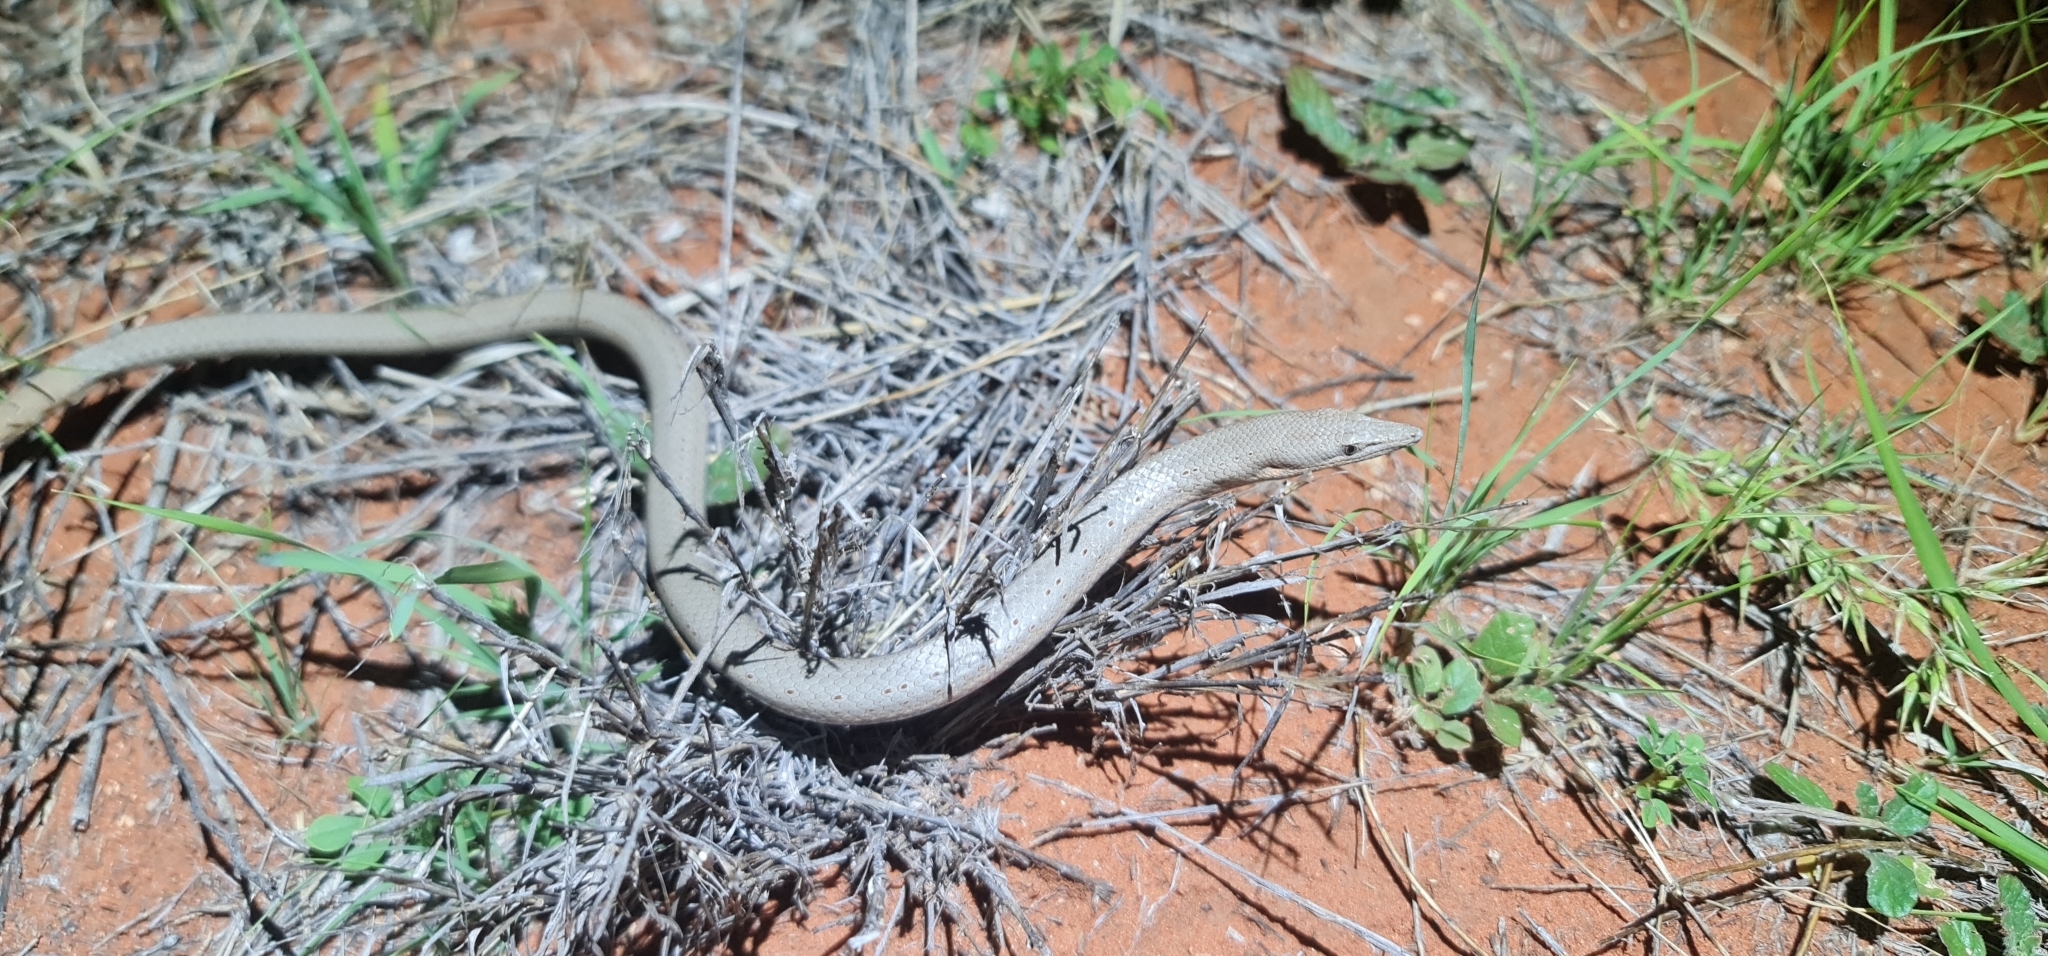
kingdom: Animalia
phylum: Chordata
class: Squamata
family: Pygopodidae
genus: Lialis
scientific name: Lialis burtonis
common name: Burton's legless lizard
